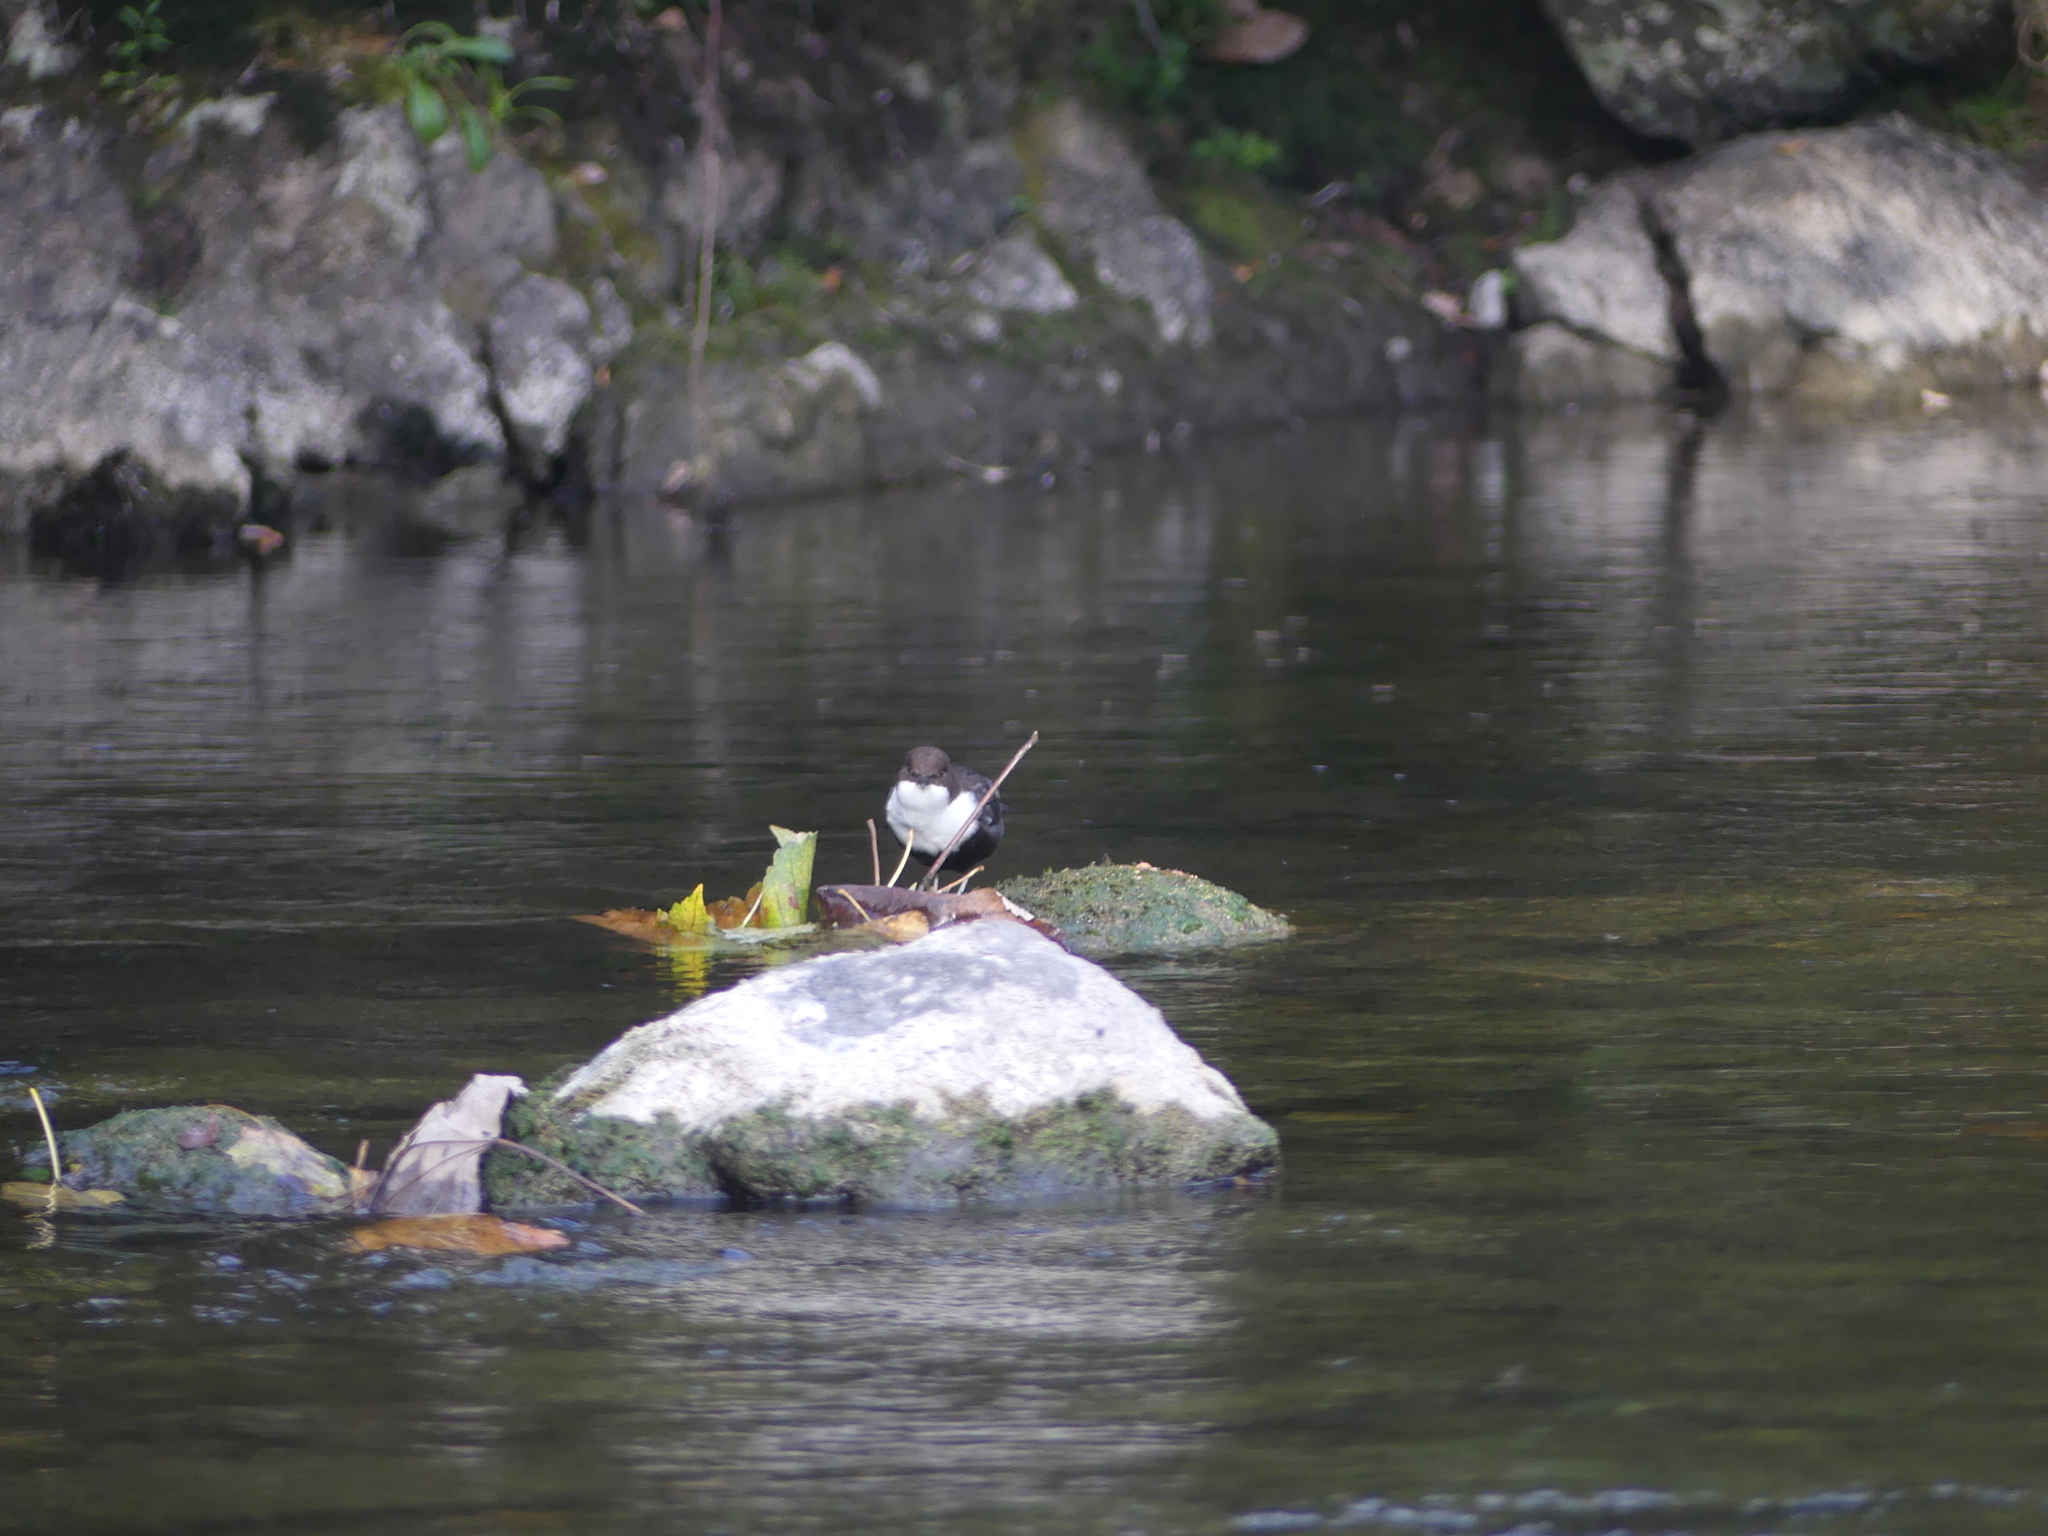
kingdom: Animalia
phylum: Chordata
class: Aves
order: Passeriformes
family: Cinclidae
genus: Cinclus
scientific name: Cinclus cinclus
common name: White-throated dipper
